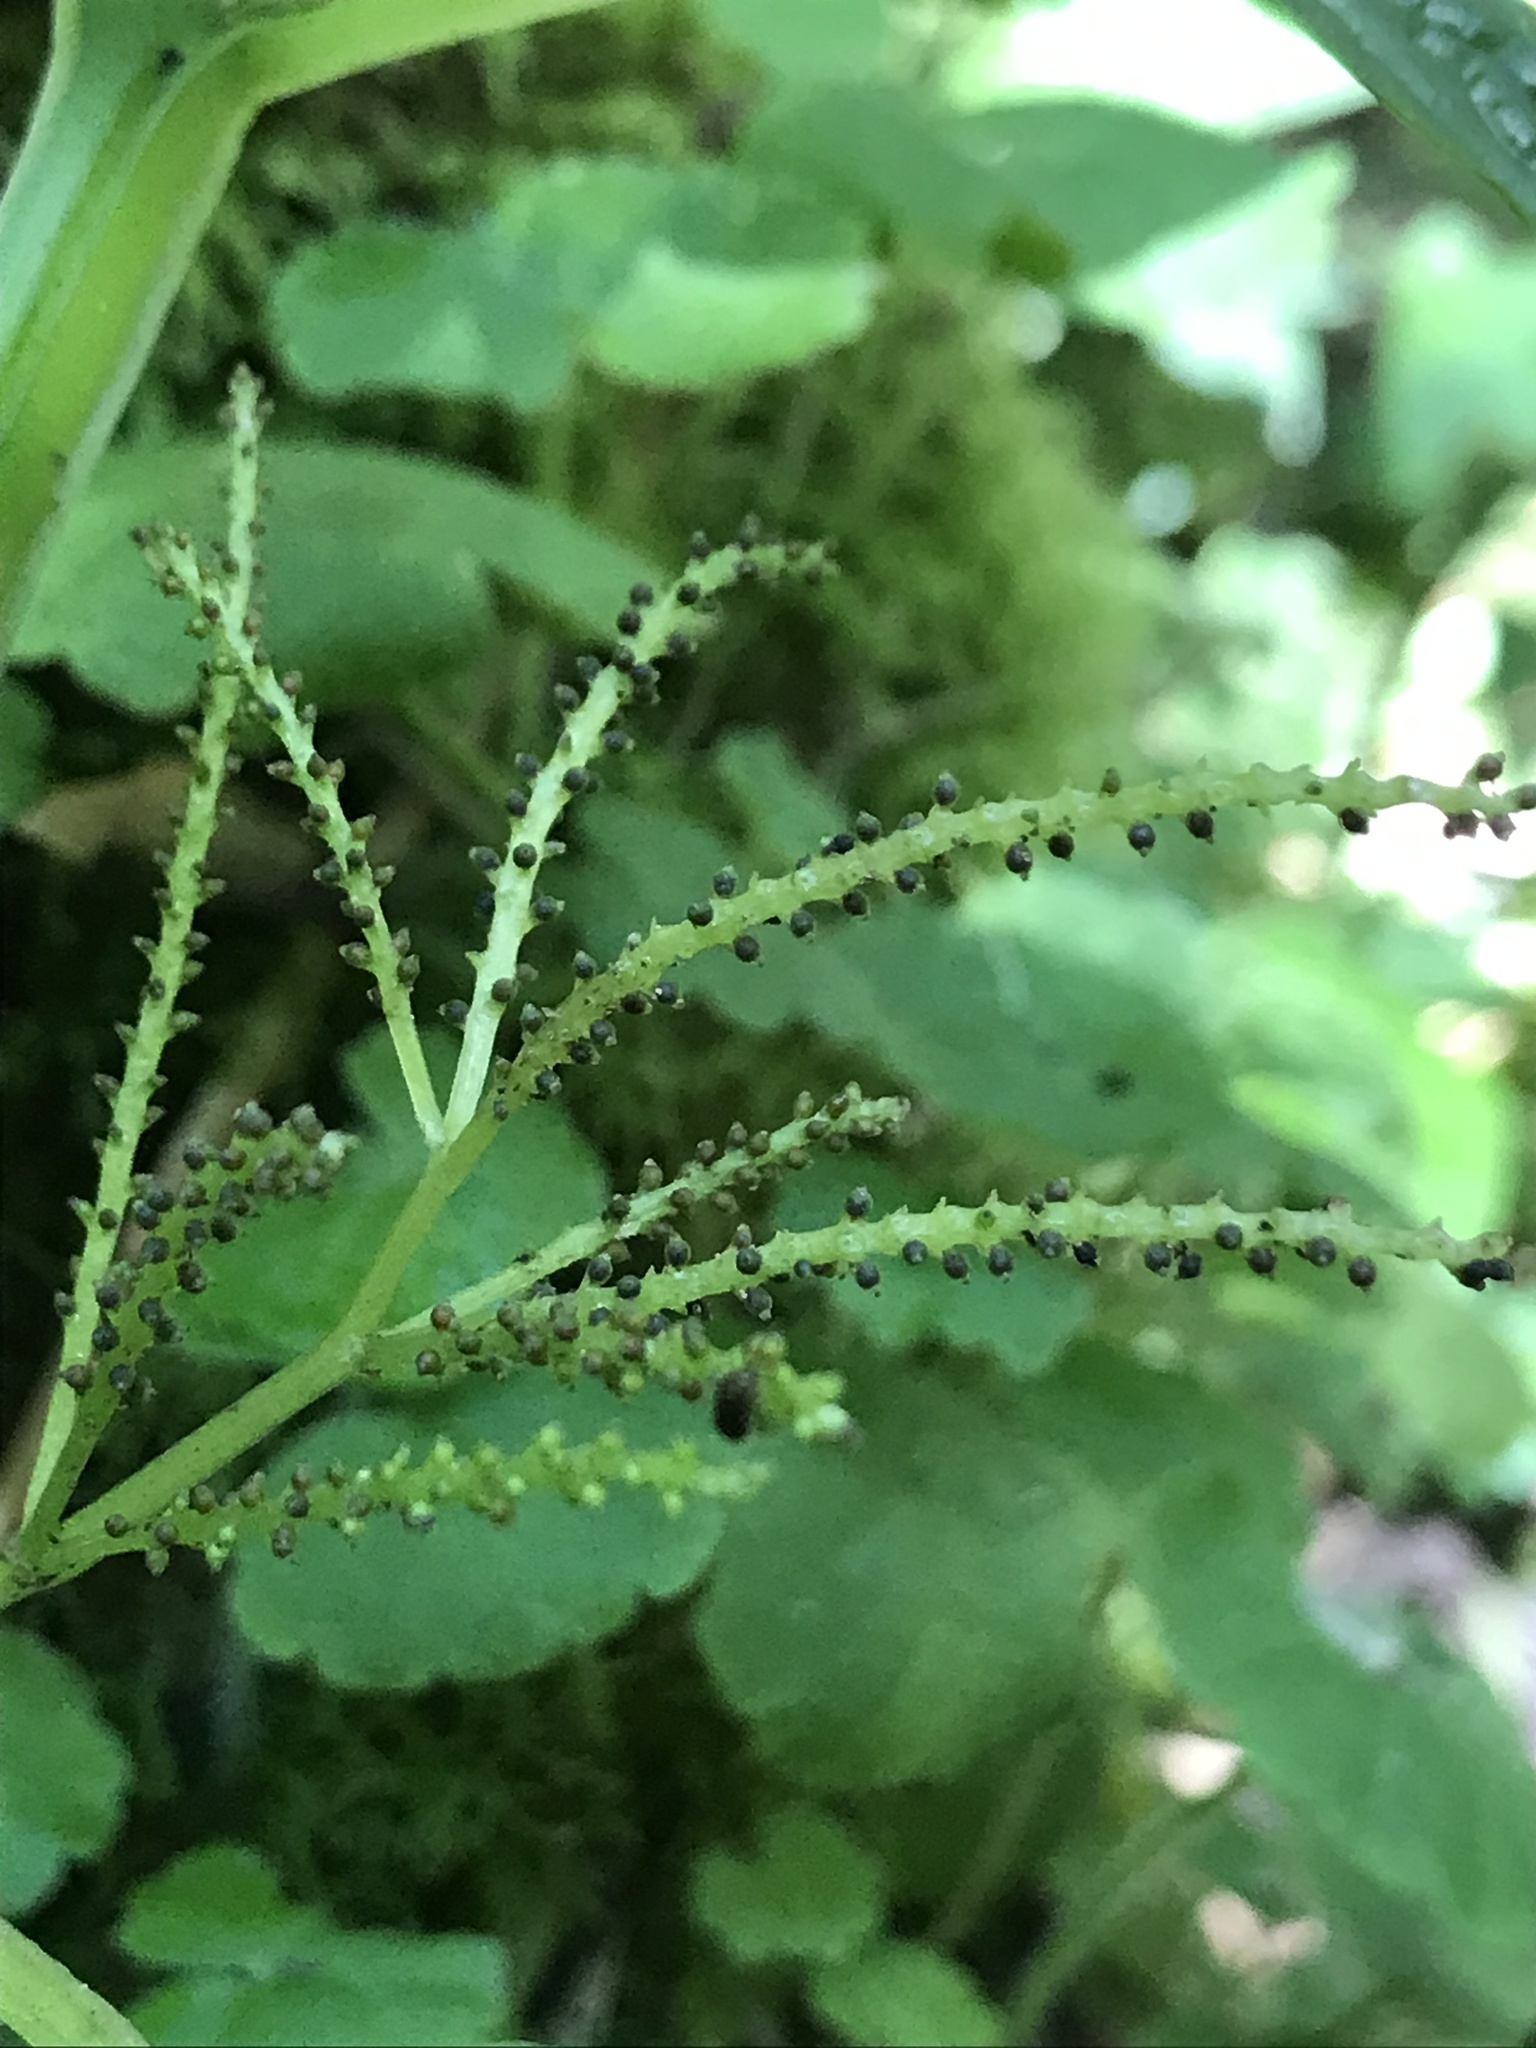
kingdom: Plantae
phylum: Tracheophyta
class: Magnoliopsida
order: Piperales
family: Piperaceae
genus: Peperomia
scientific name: Peperomia subalata
